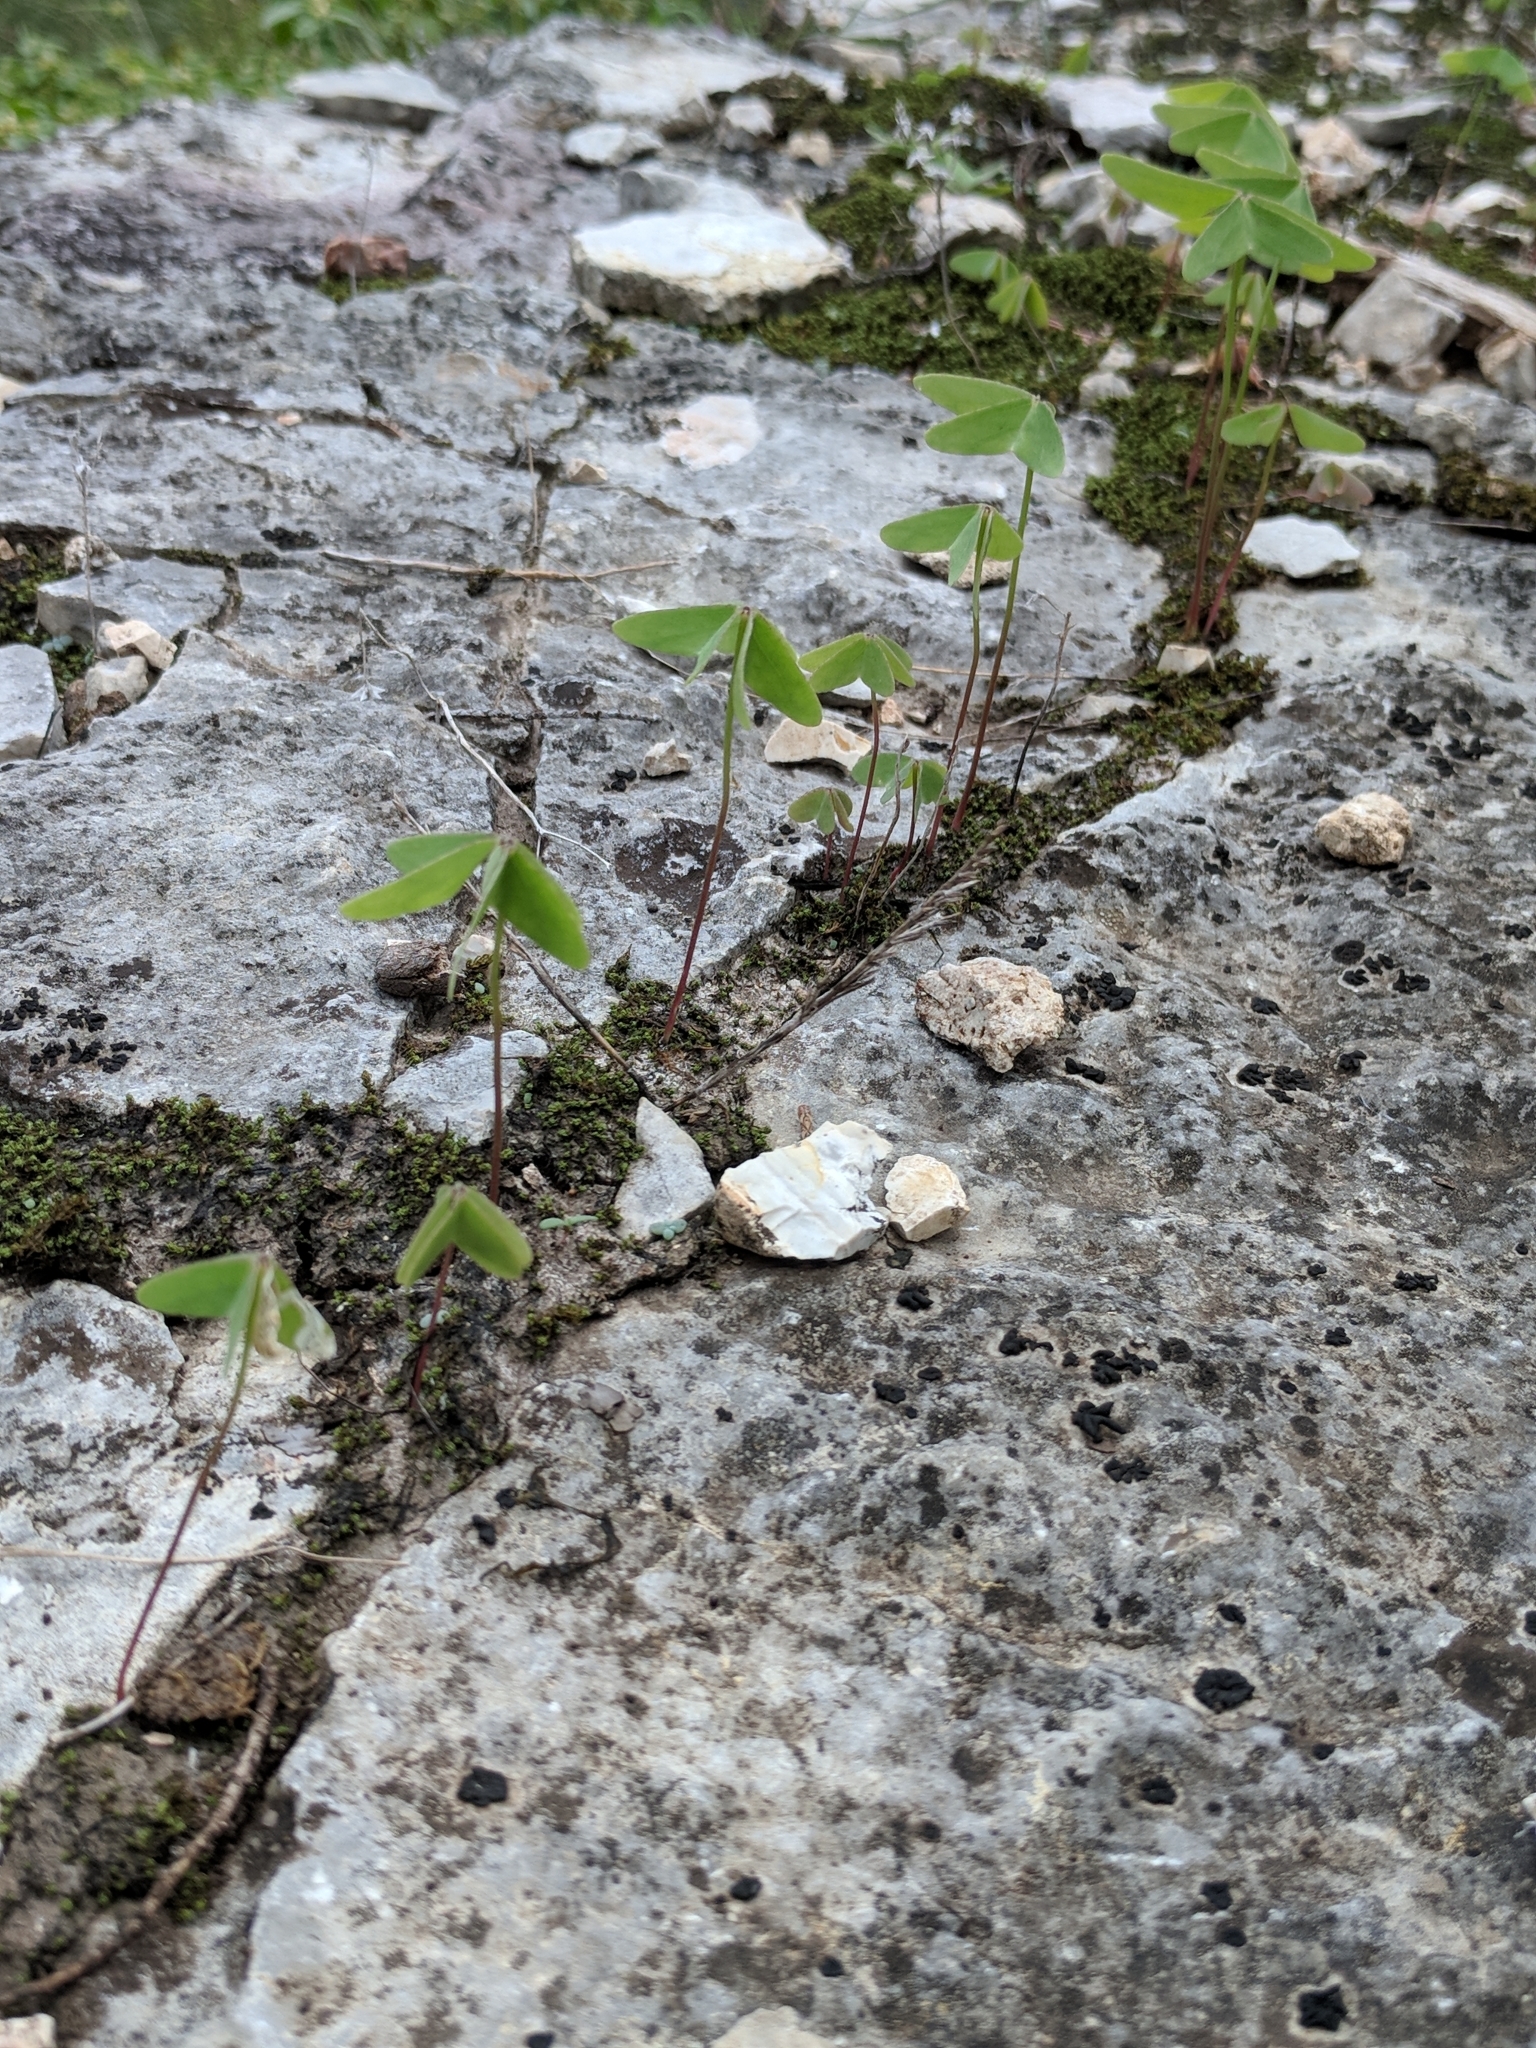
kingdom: Plantae
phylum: Tracheophyta
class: Magnoliopsida
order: Oxalidales
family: Oxalidaceae
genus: Oxalis
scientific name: Oxalis drummondii
